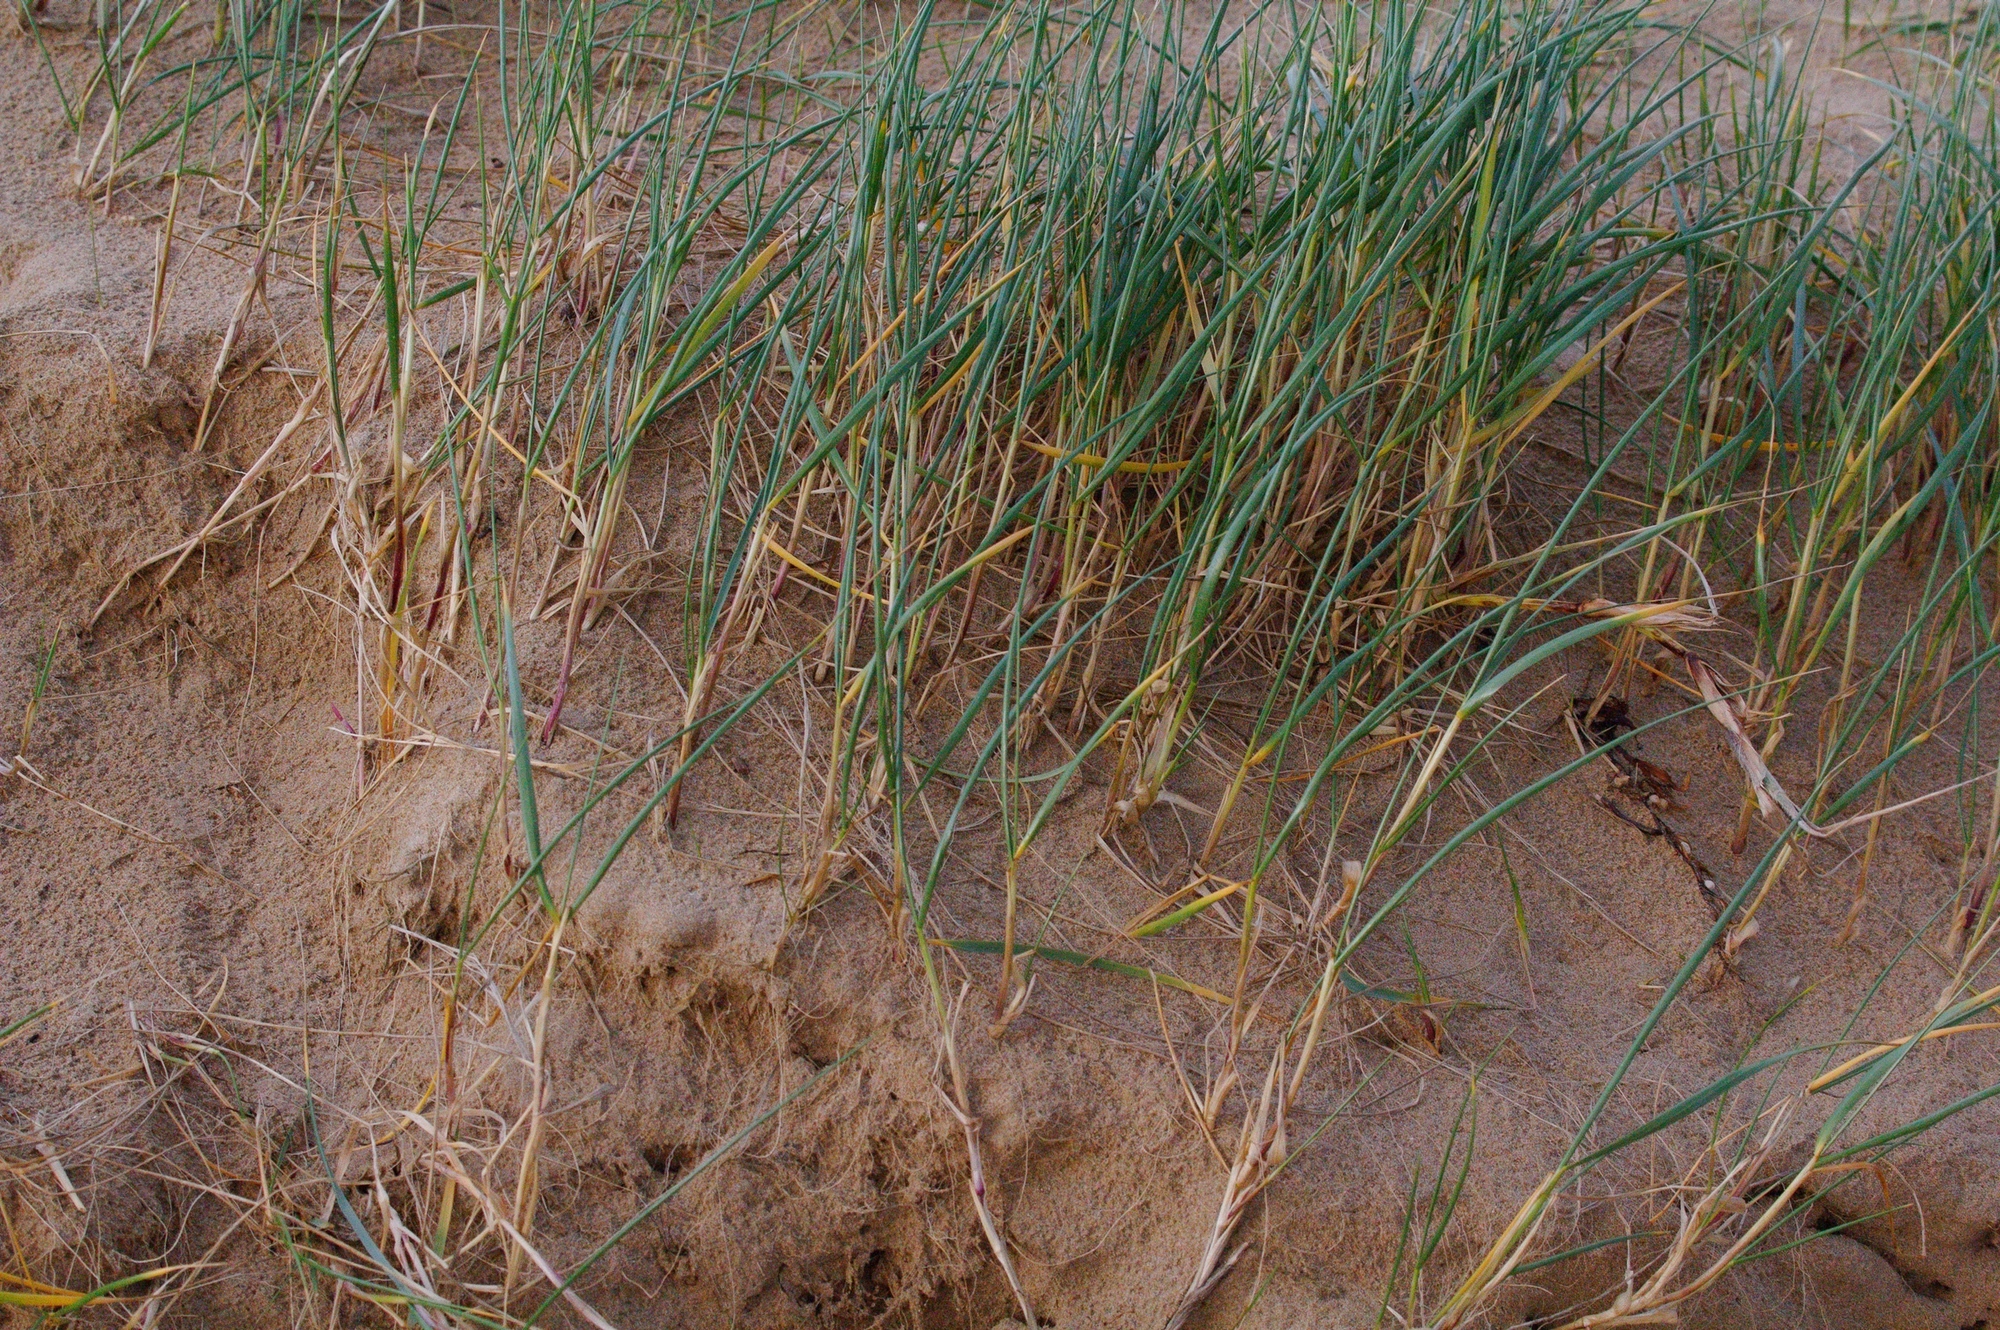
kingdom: Plantae
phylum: Tracheophyta
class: Liliopsida
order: Poales
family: Poaceae
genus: Spinifex
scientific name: Spinifex sericeus
